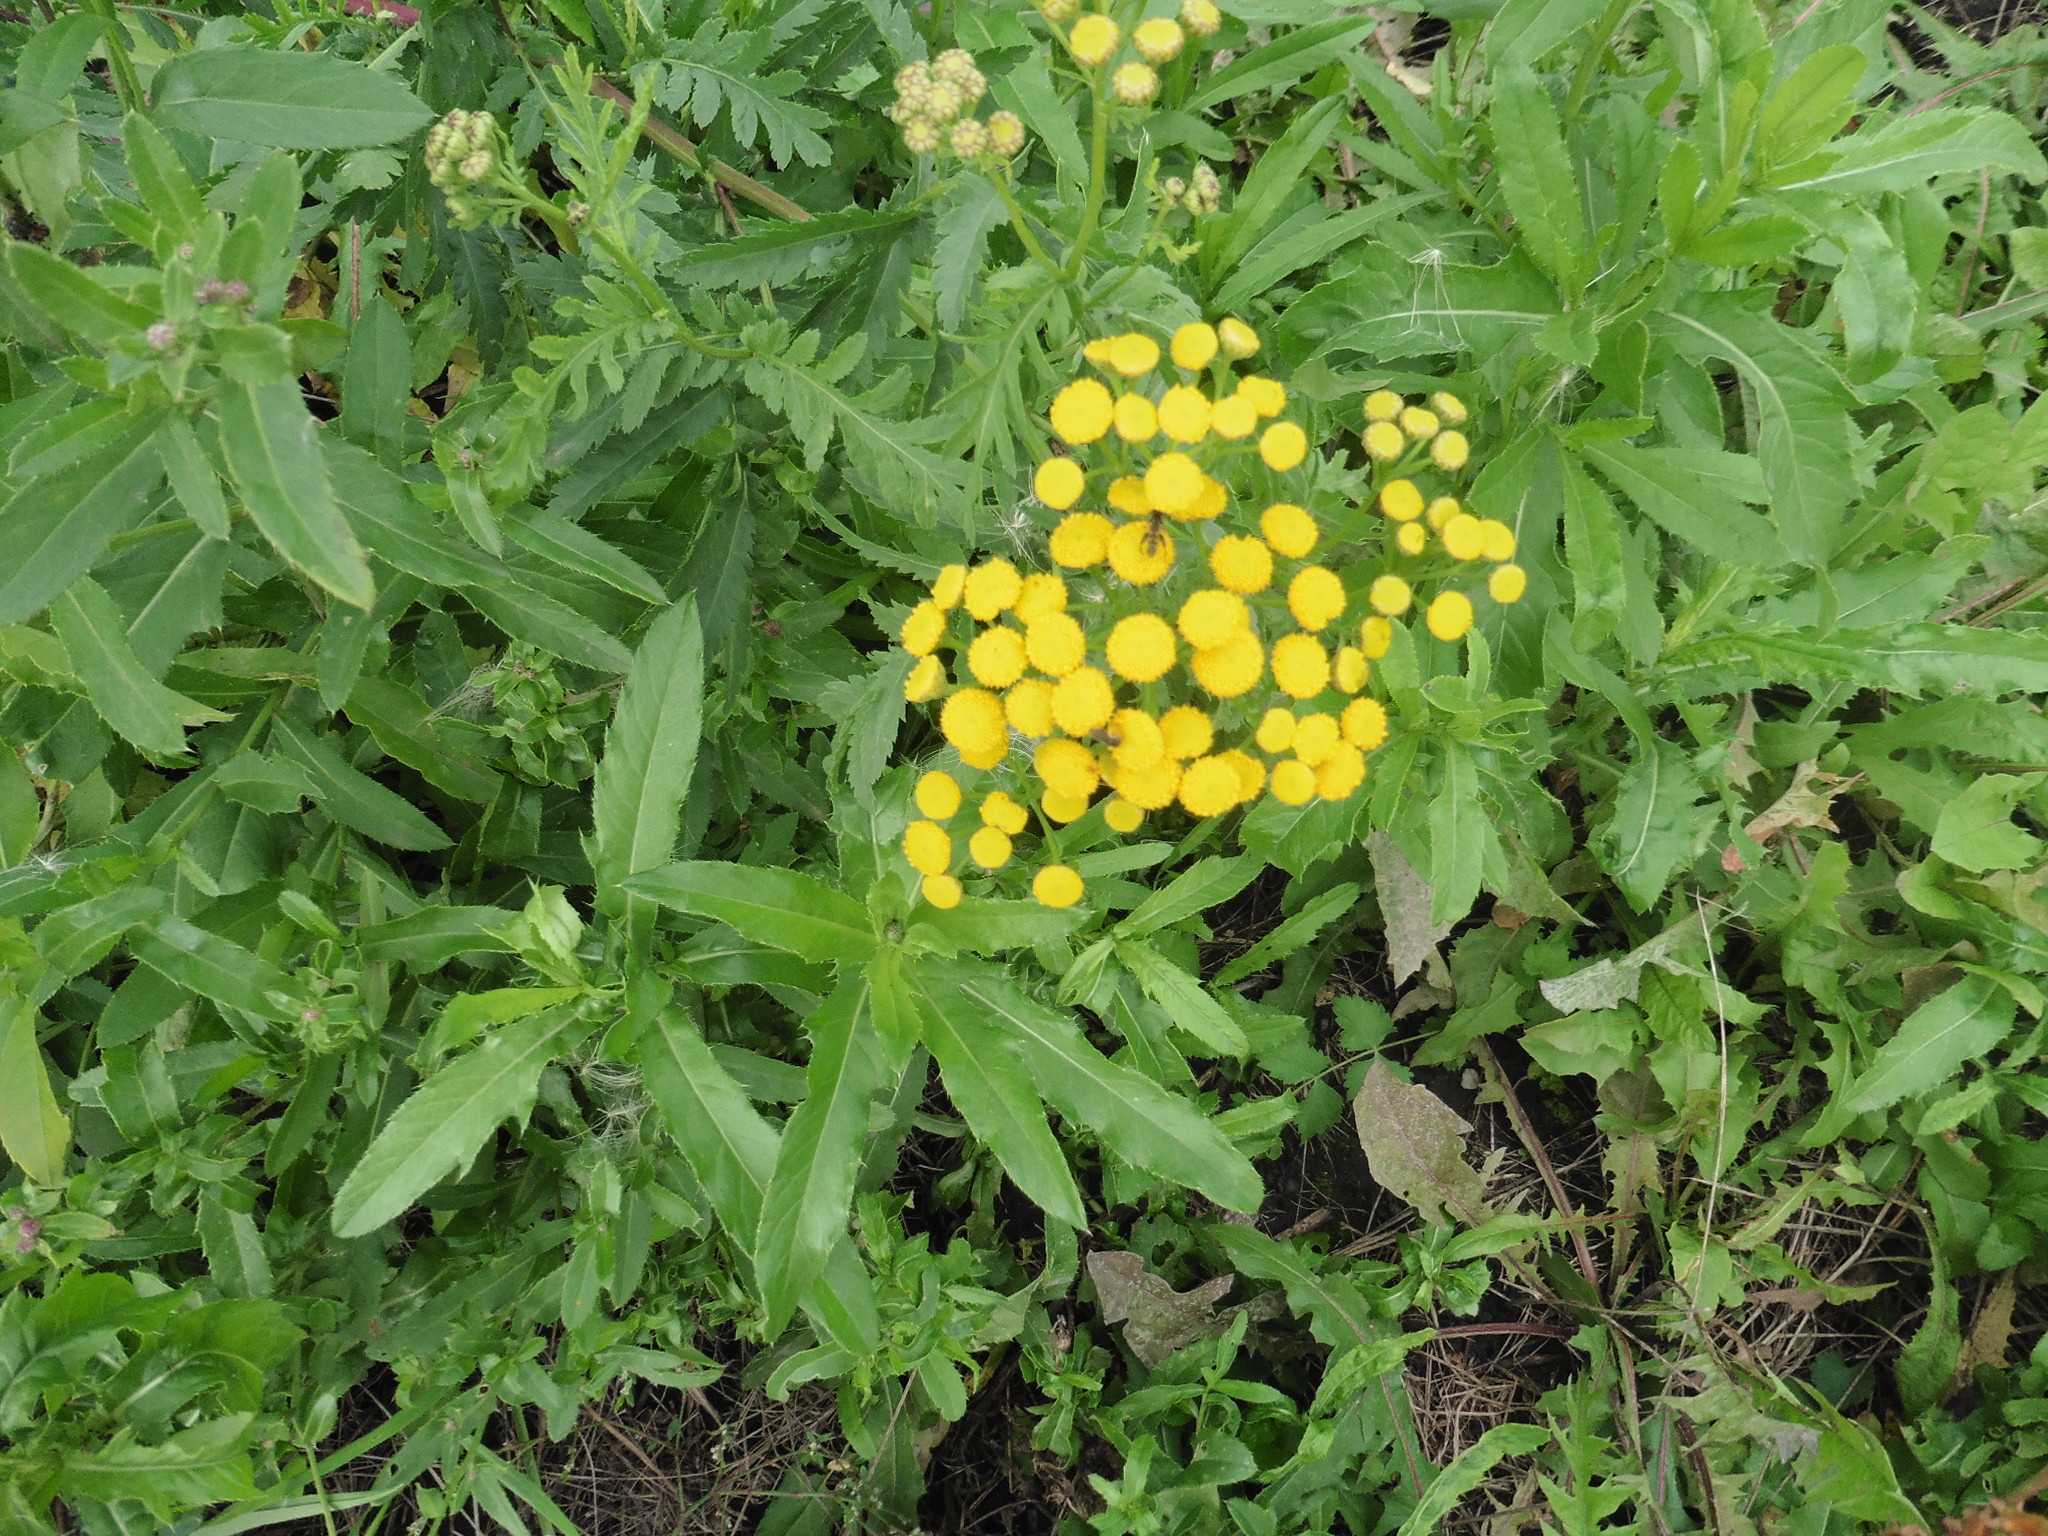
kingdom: Plantae
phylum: Tracheophyta
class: Magnoliopsida
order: Asterales
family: Asteraceae
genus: Tanacetum
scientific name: Tanacetum vulgare
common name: Common tansy
